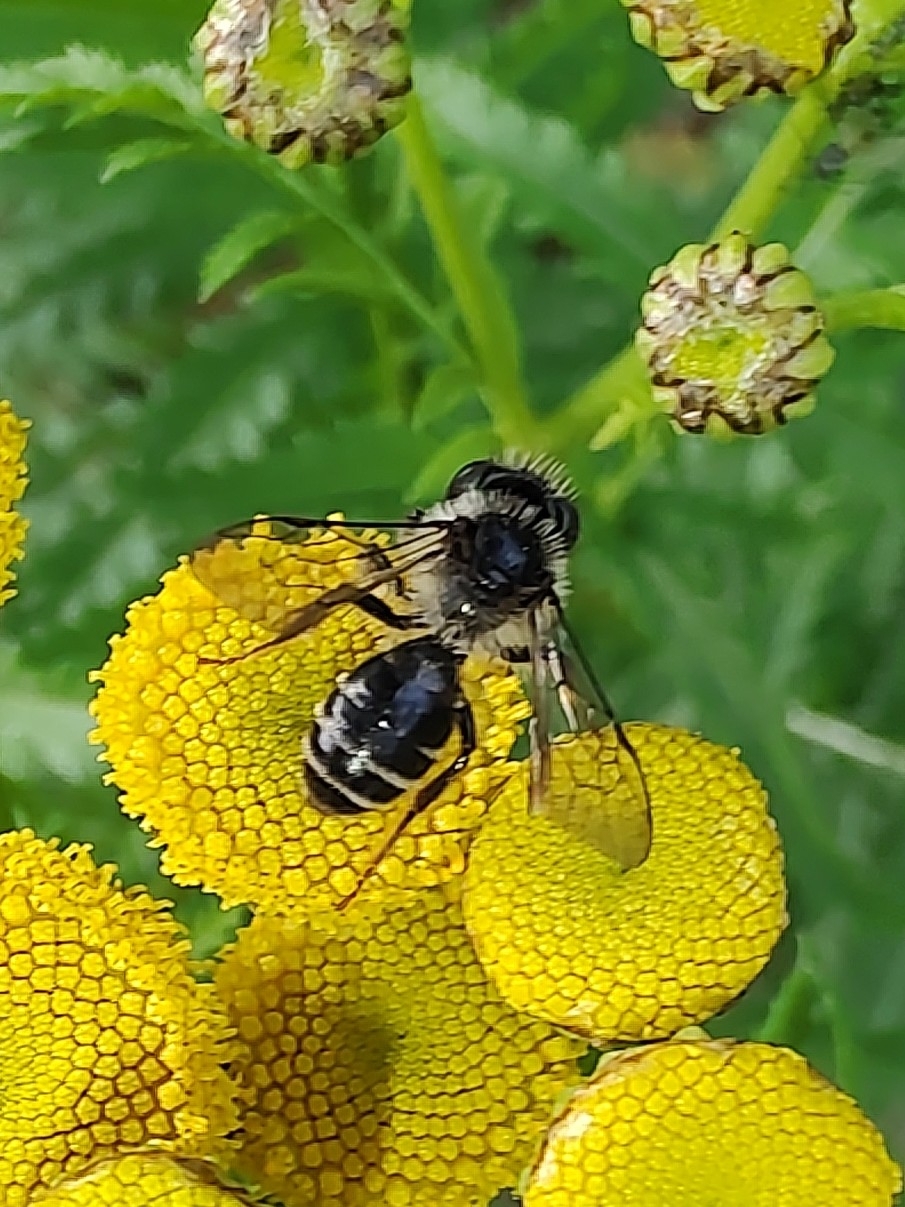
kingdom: Animalia
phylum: Arthropoda
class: Insecta
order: Hymenoptera
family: Andrenidae
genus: Andrena
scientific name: Andrena denticulata
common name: Grey-banded mining bee
